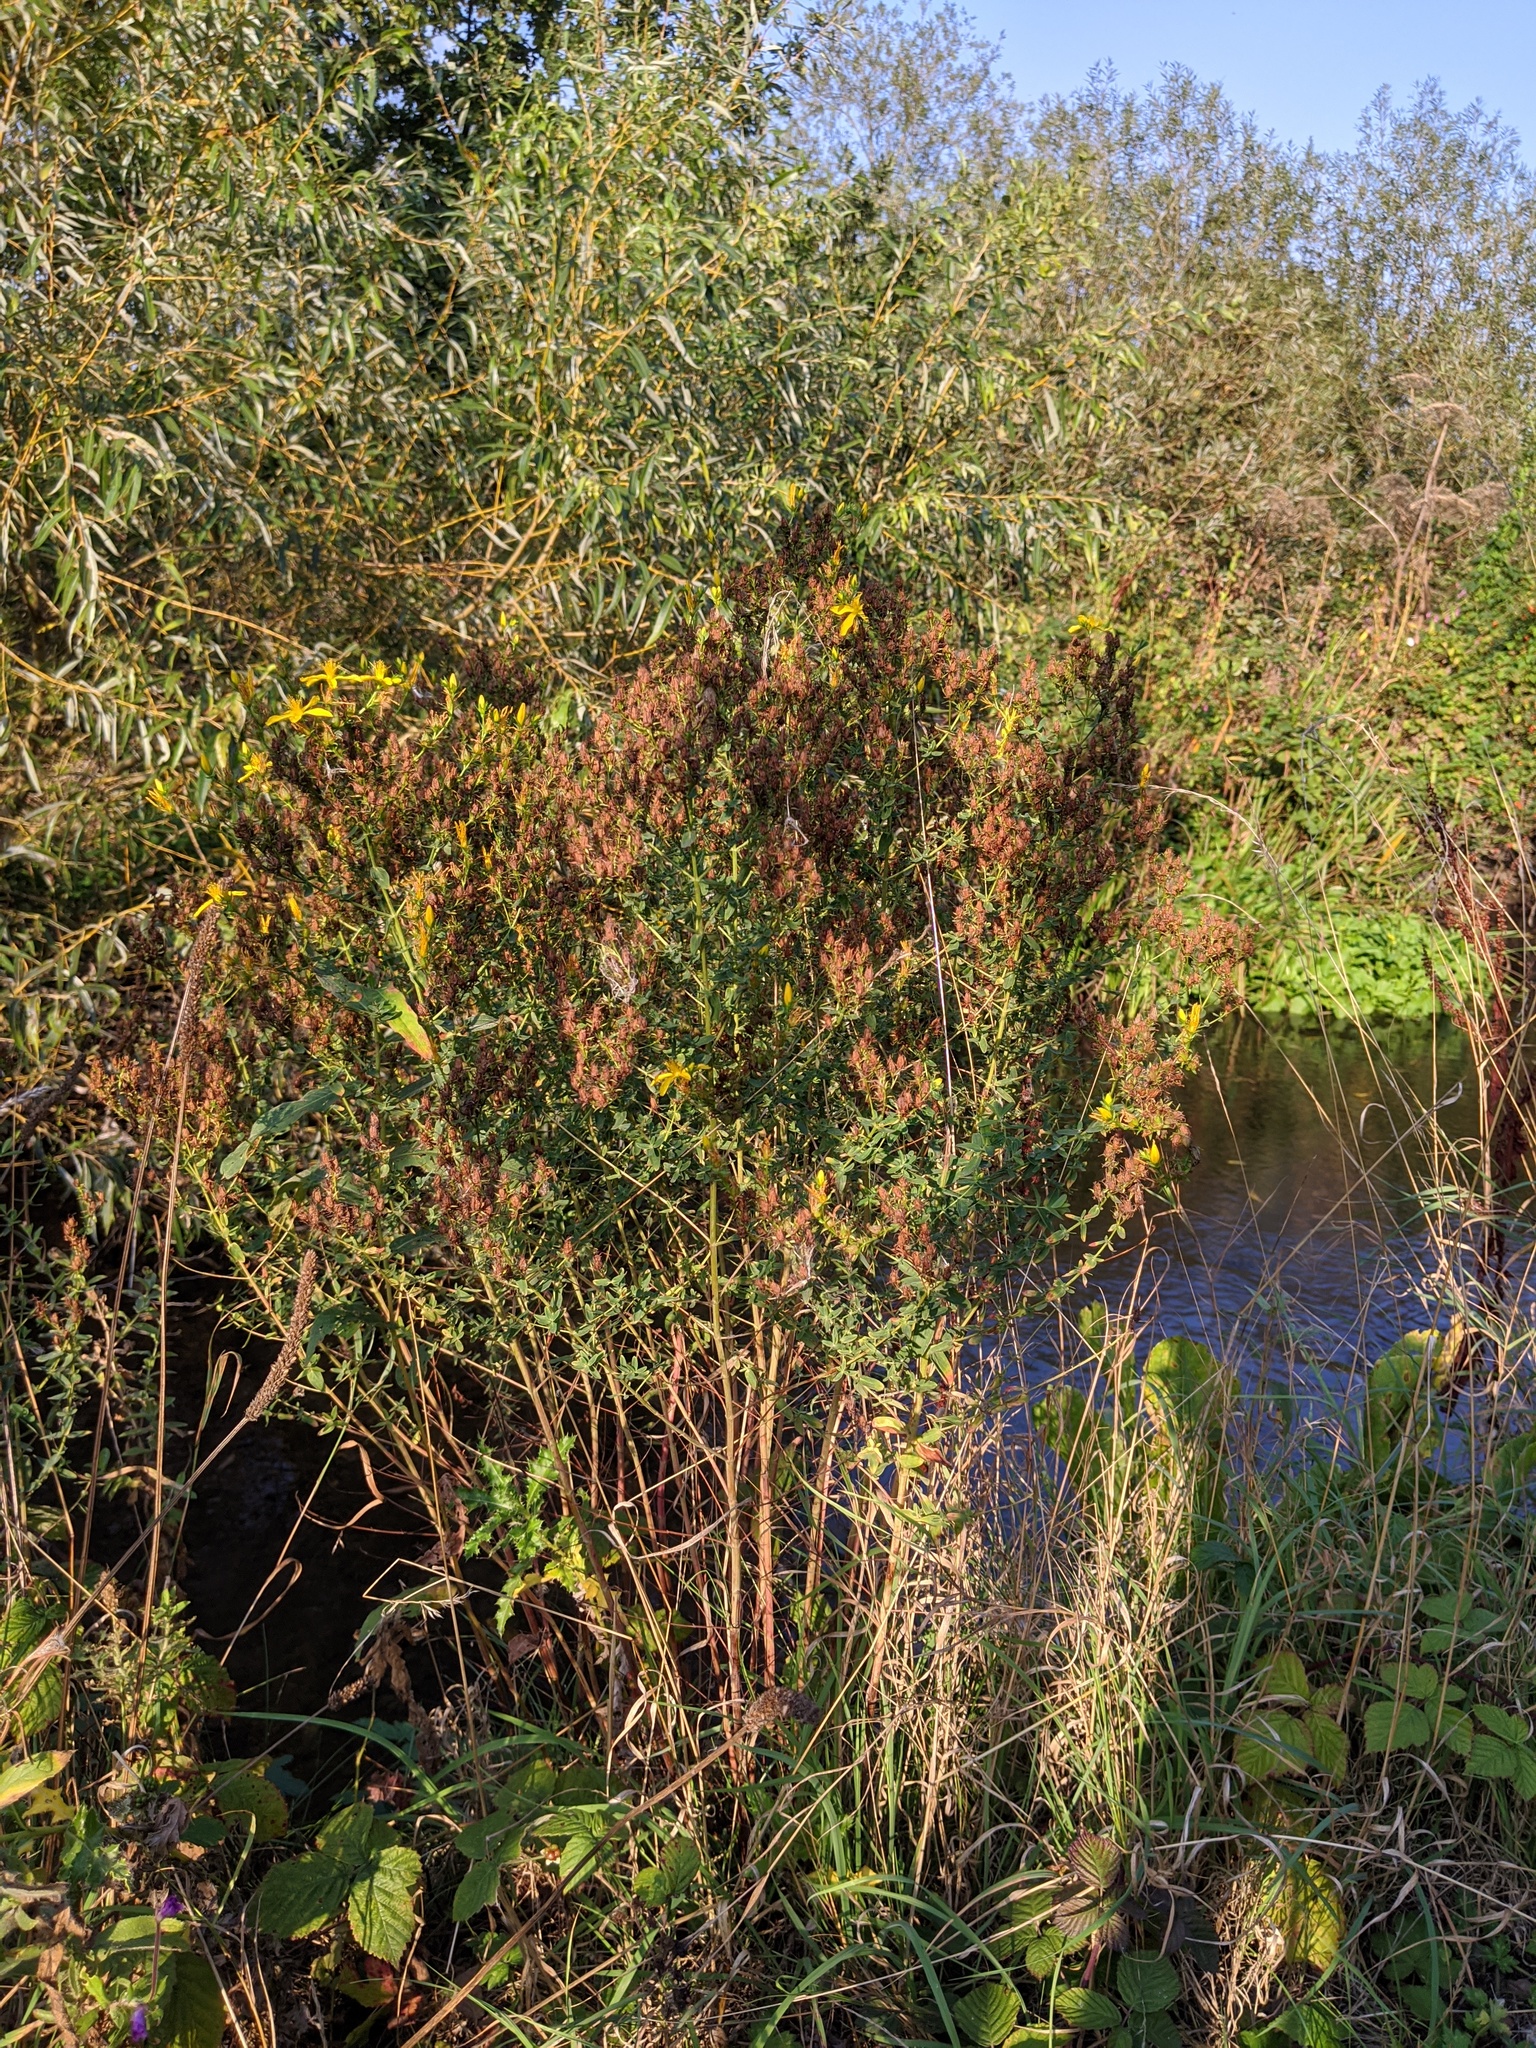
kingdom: Plantae
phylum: Tracheophyta
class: Magnoliopsida
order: Malpighiales
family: Hypericaceae
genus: Hypericum
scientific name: Hypericum perforatum
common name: Common st. johnswort
